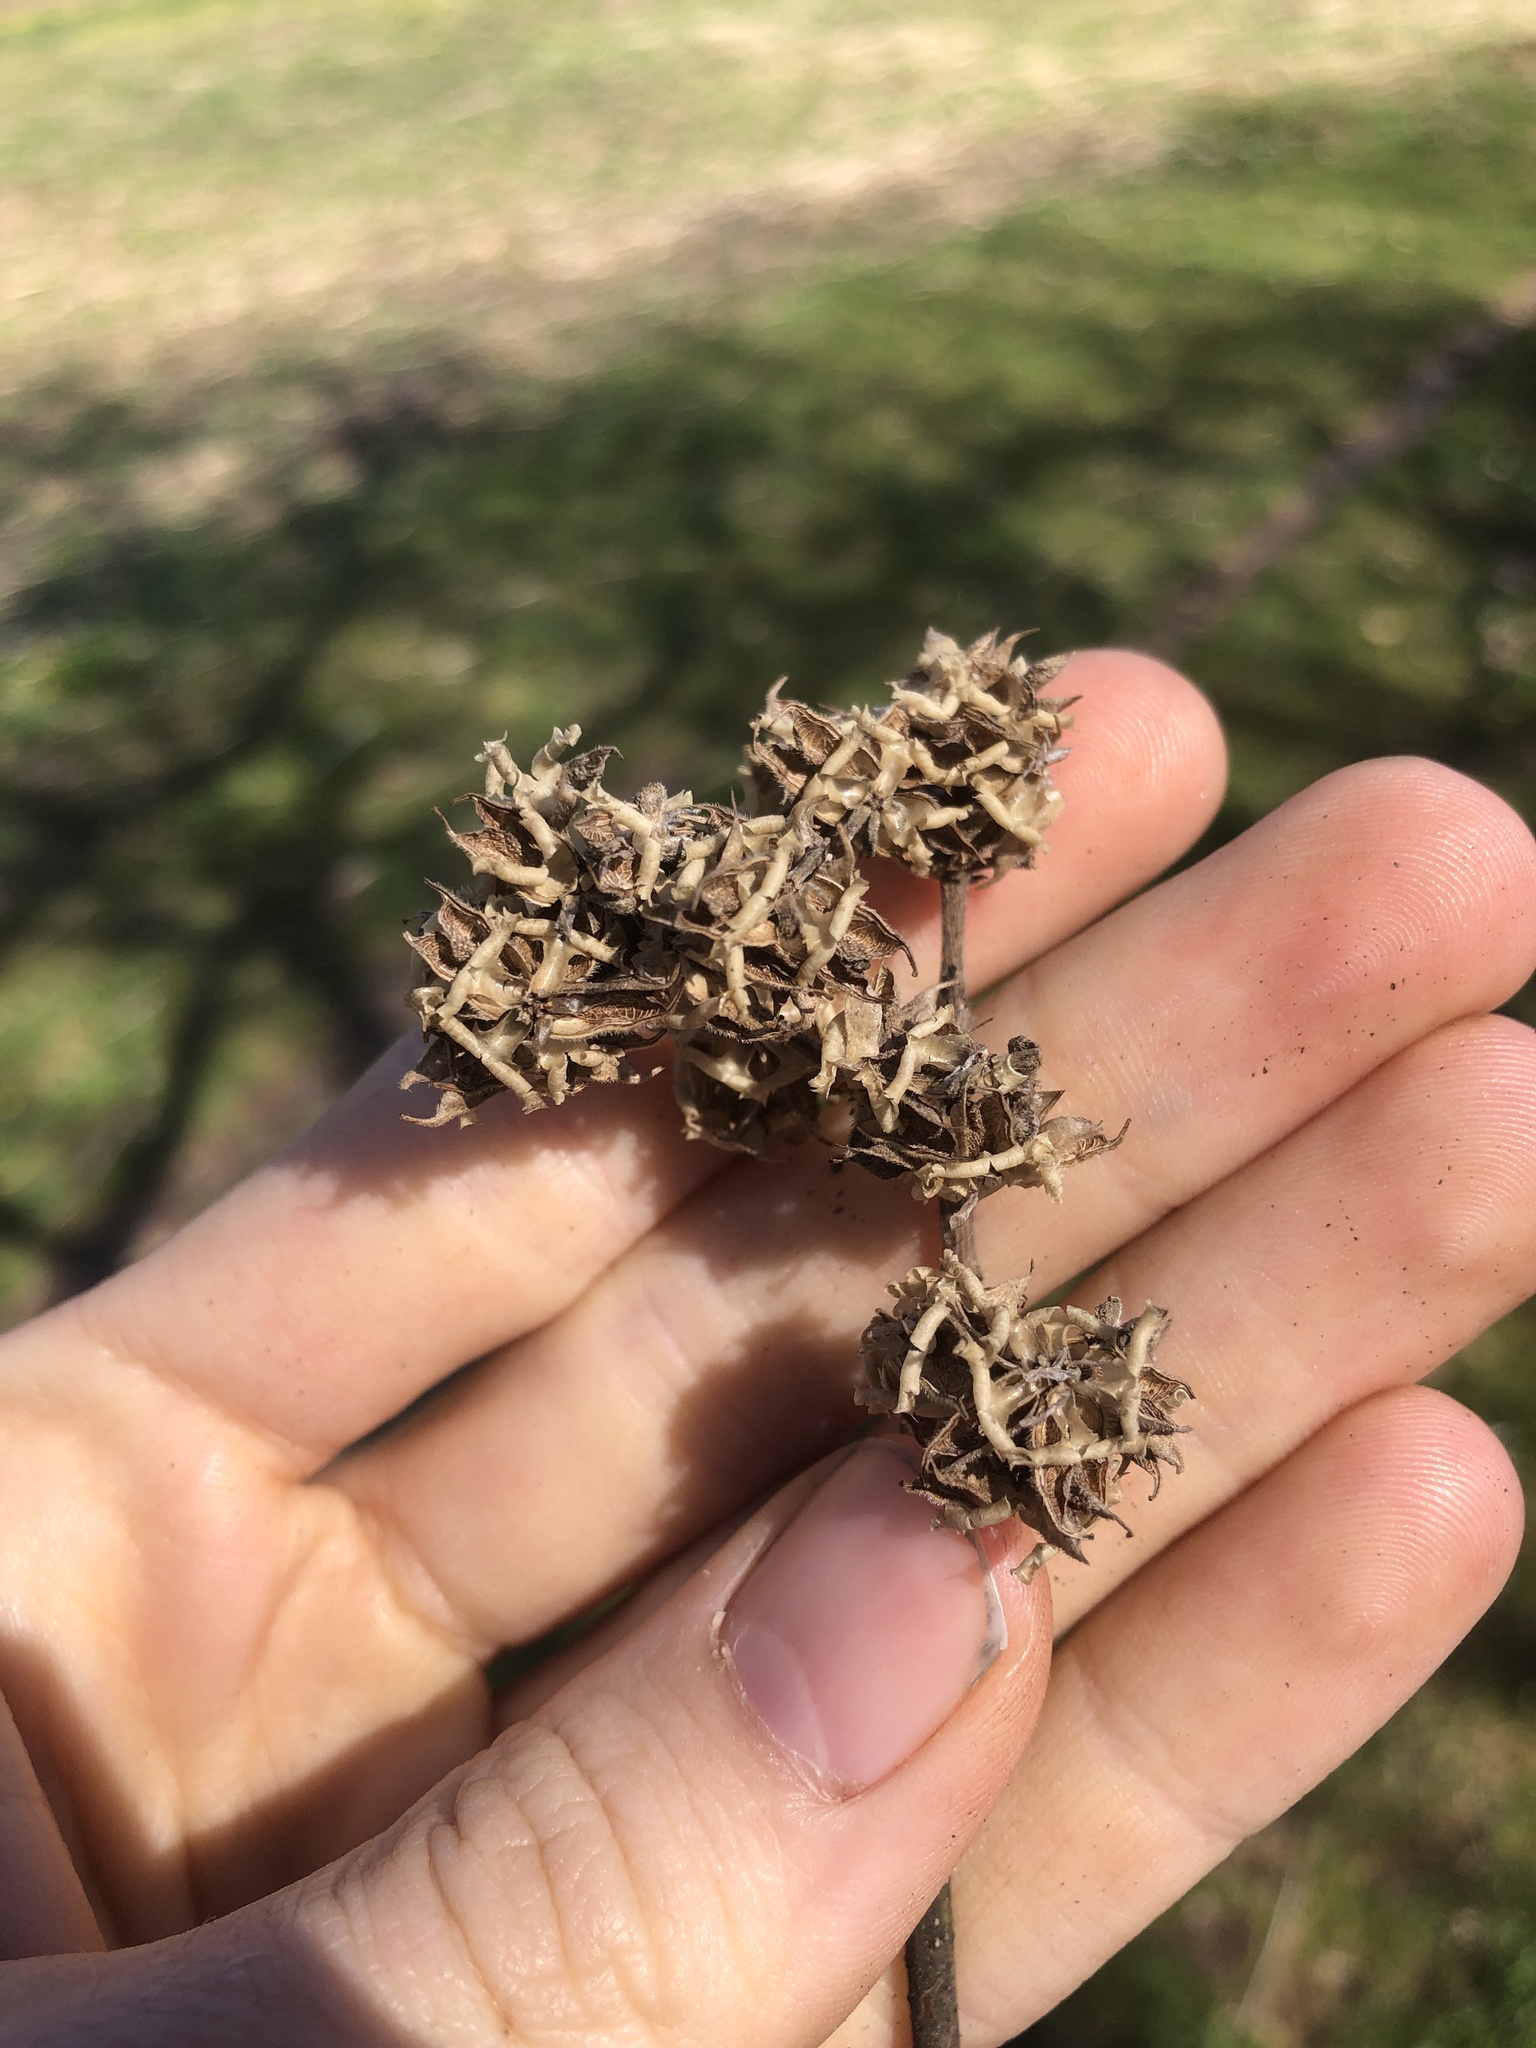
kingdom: Plantae
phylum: Tracheophyta
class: Magnoliopsida
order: Sapindales
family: Rutaceae
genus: Tetradium
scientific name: Tetradium daniellii
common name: Bee-bee tree
